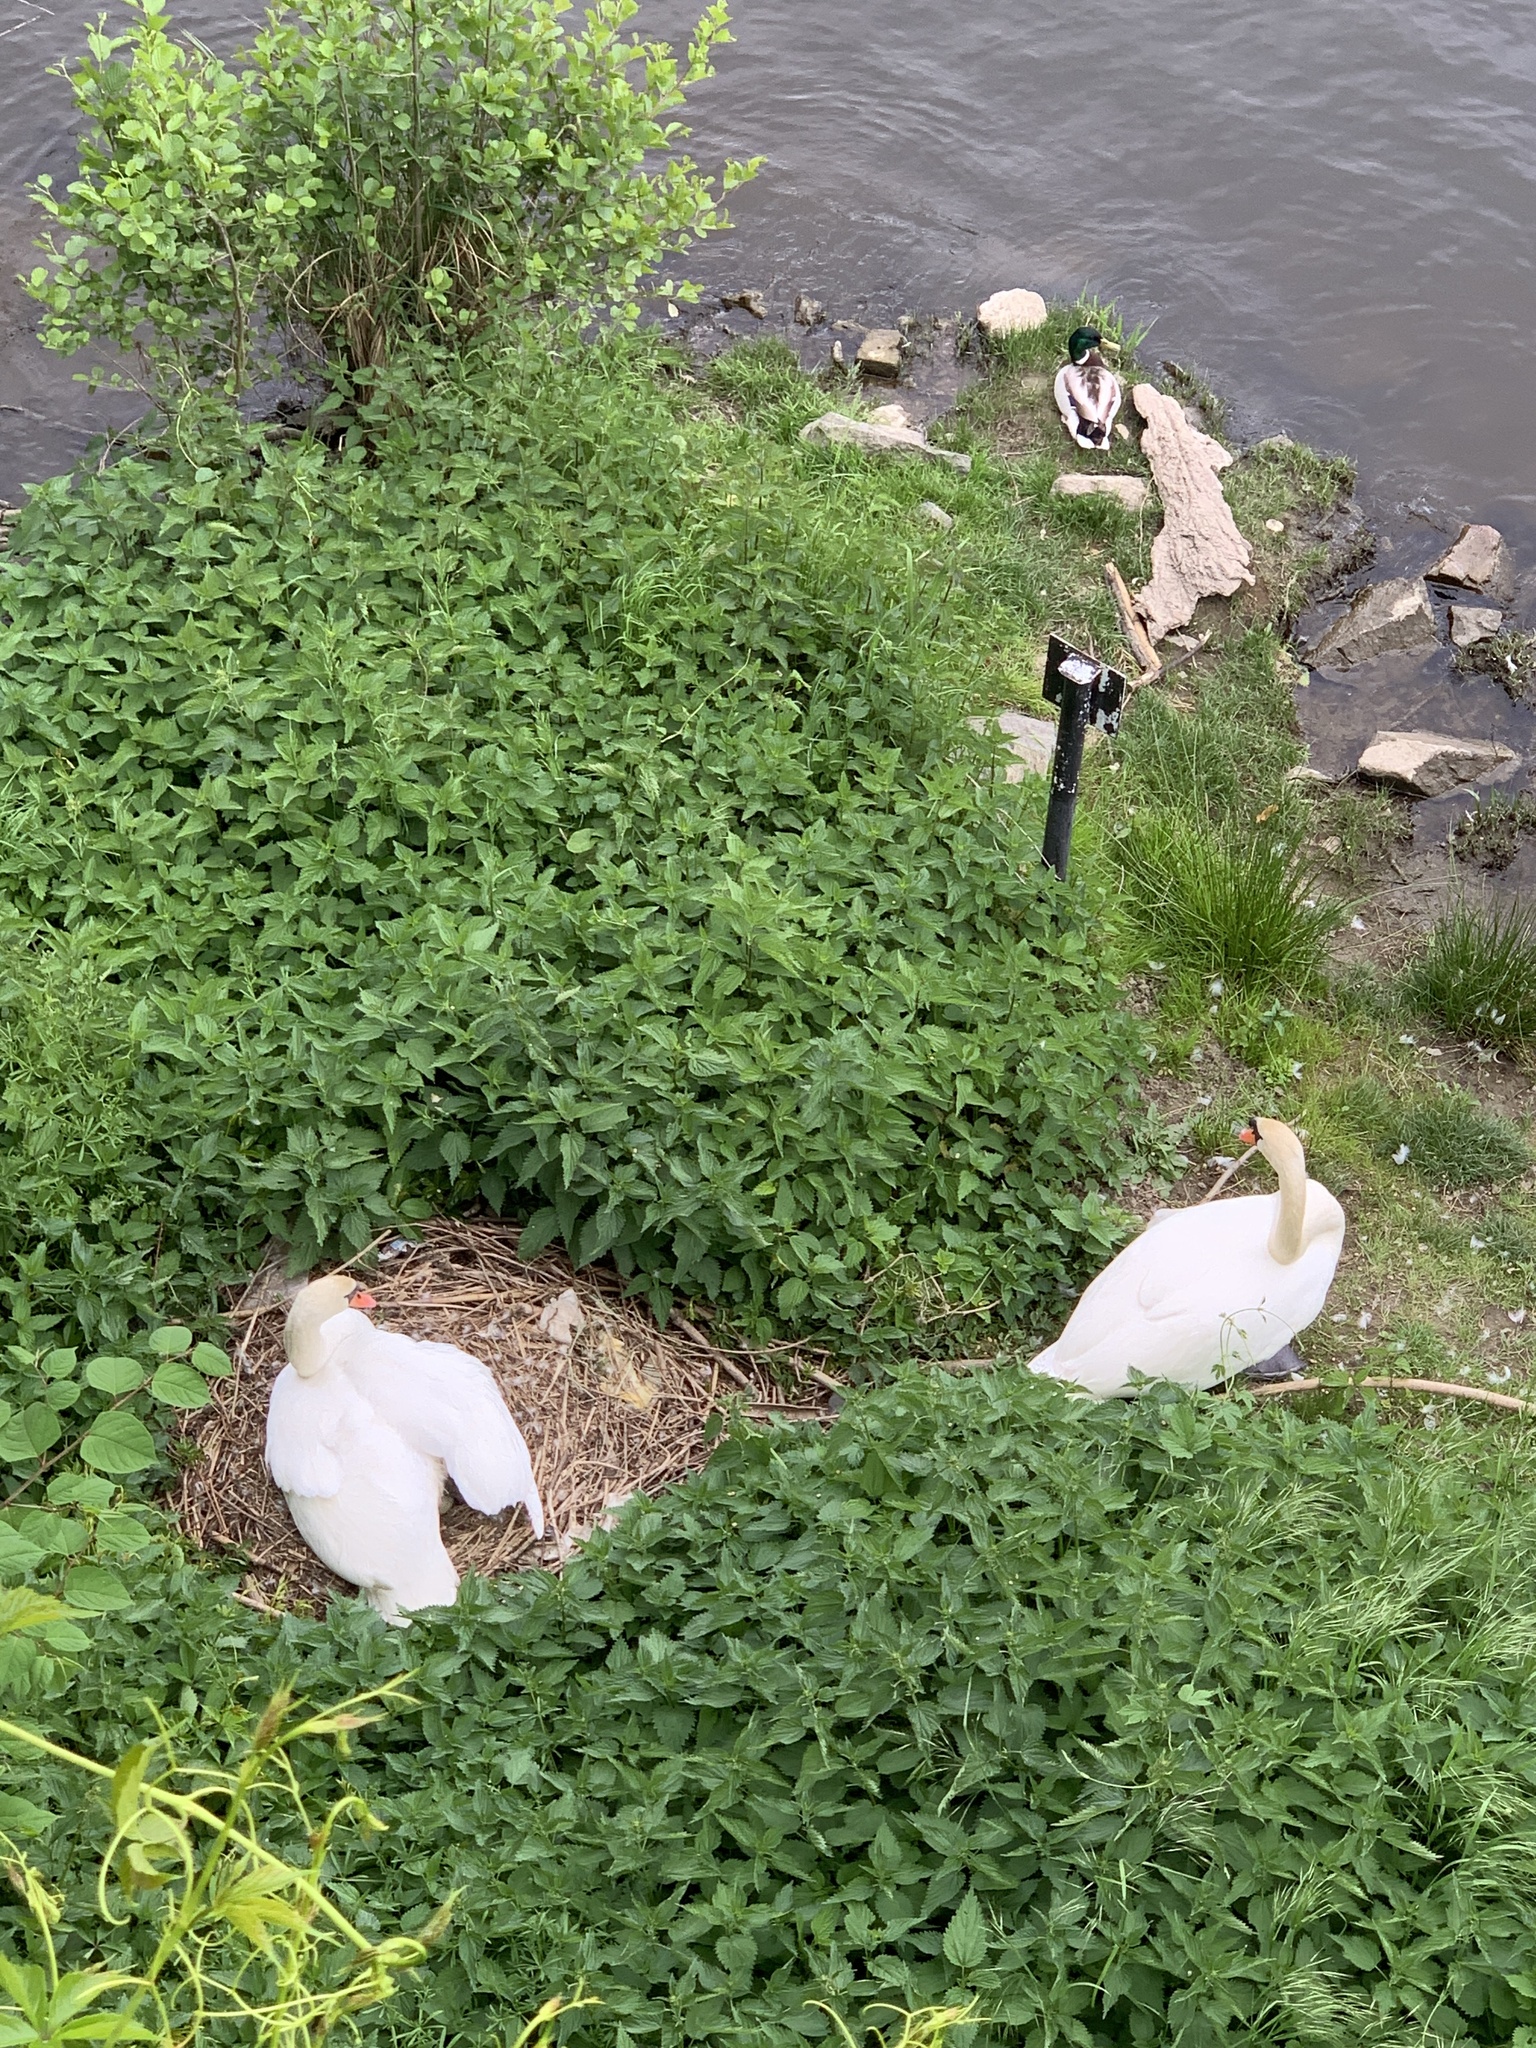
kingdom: Animalia
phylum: Chordata
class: Aves
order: Anseriformes
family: Anatidae
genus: Cygnus
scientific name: Cygnus olor
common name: Mute swan
